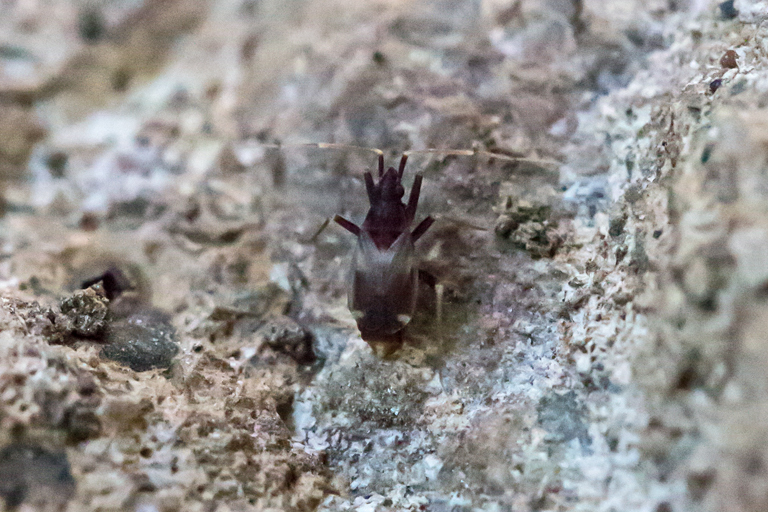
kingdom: Animalia
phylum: Arthropoda
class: Insecta
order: Hemiptera
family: Miridae
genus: Fulvius
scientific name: Fulvius slateri
